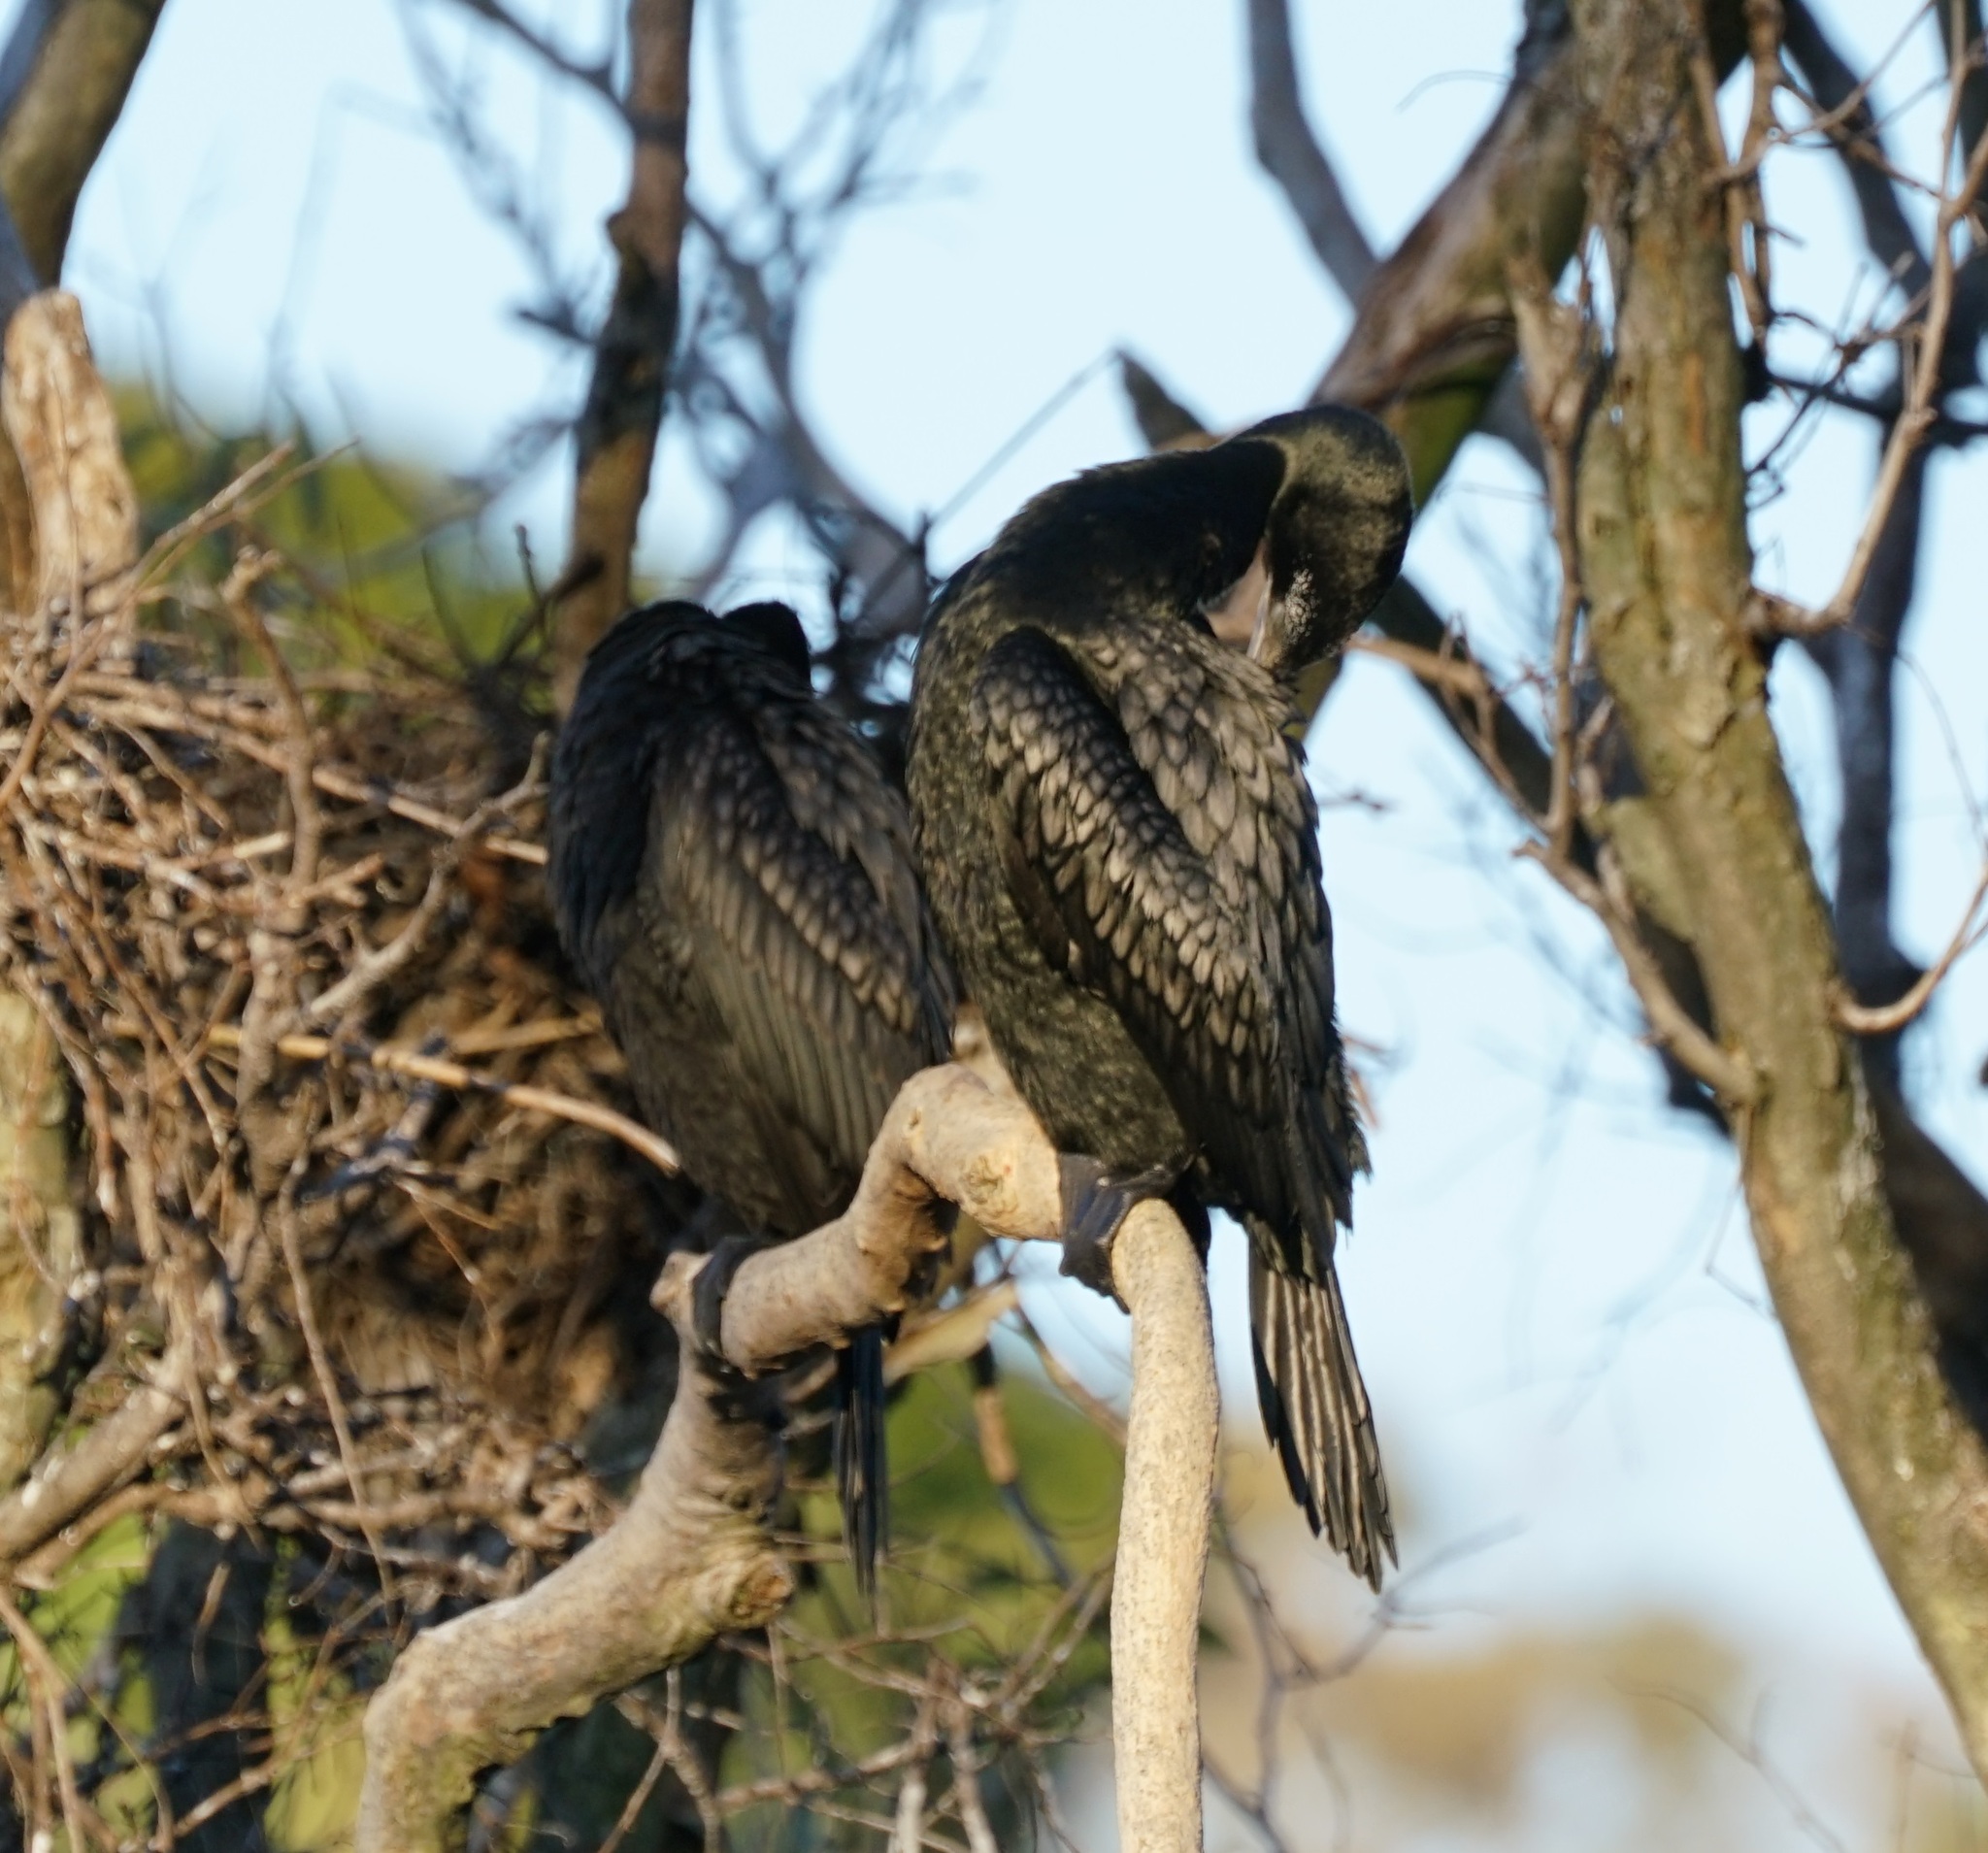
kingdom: Animalia
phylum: Chordata
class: Aves
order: Suliformes
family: Phalacrocoracidae
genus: Phalacrocorax
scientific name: Phalacrocorax sulcirostris
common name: Little black cormorant
